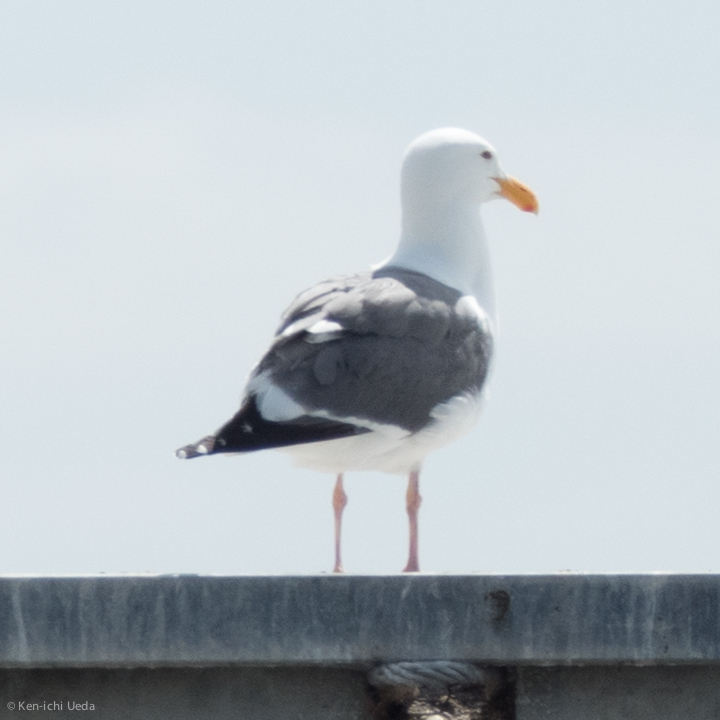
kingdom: Animalia
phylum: Chordata
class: Aves
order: Charadriiformes
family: Laridae
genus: Larus
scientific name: Larus occidentalis
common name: Western gull
